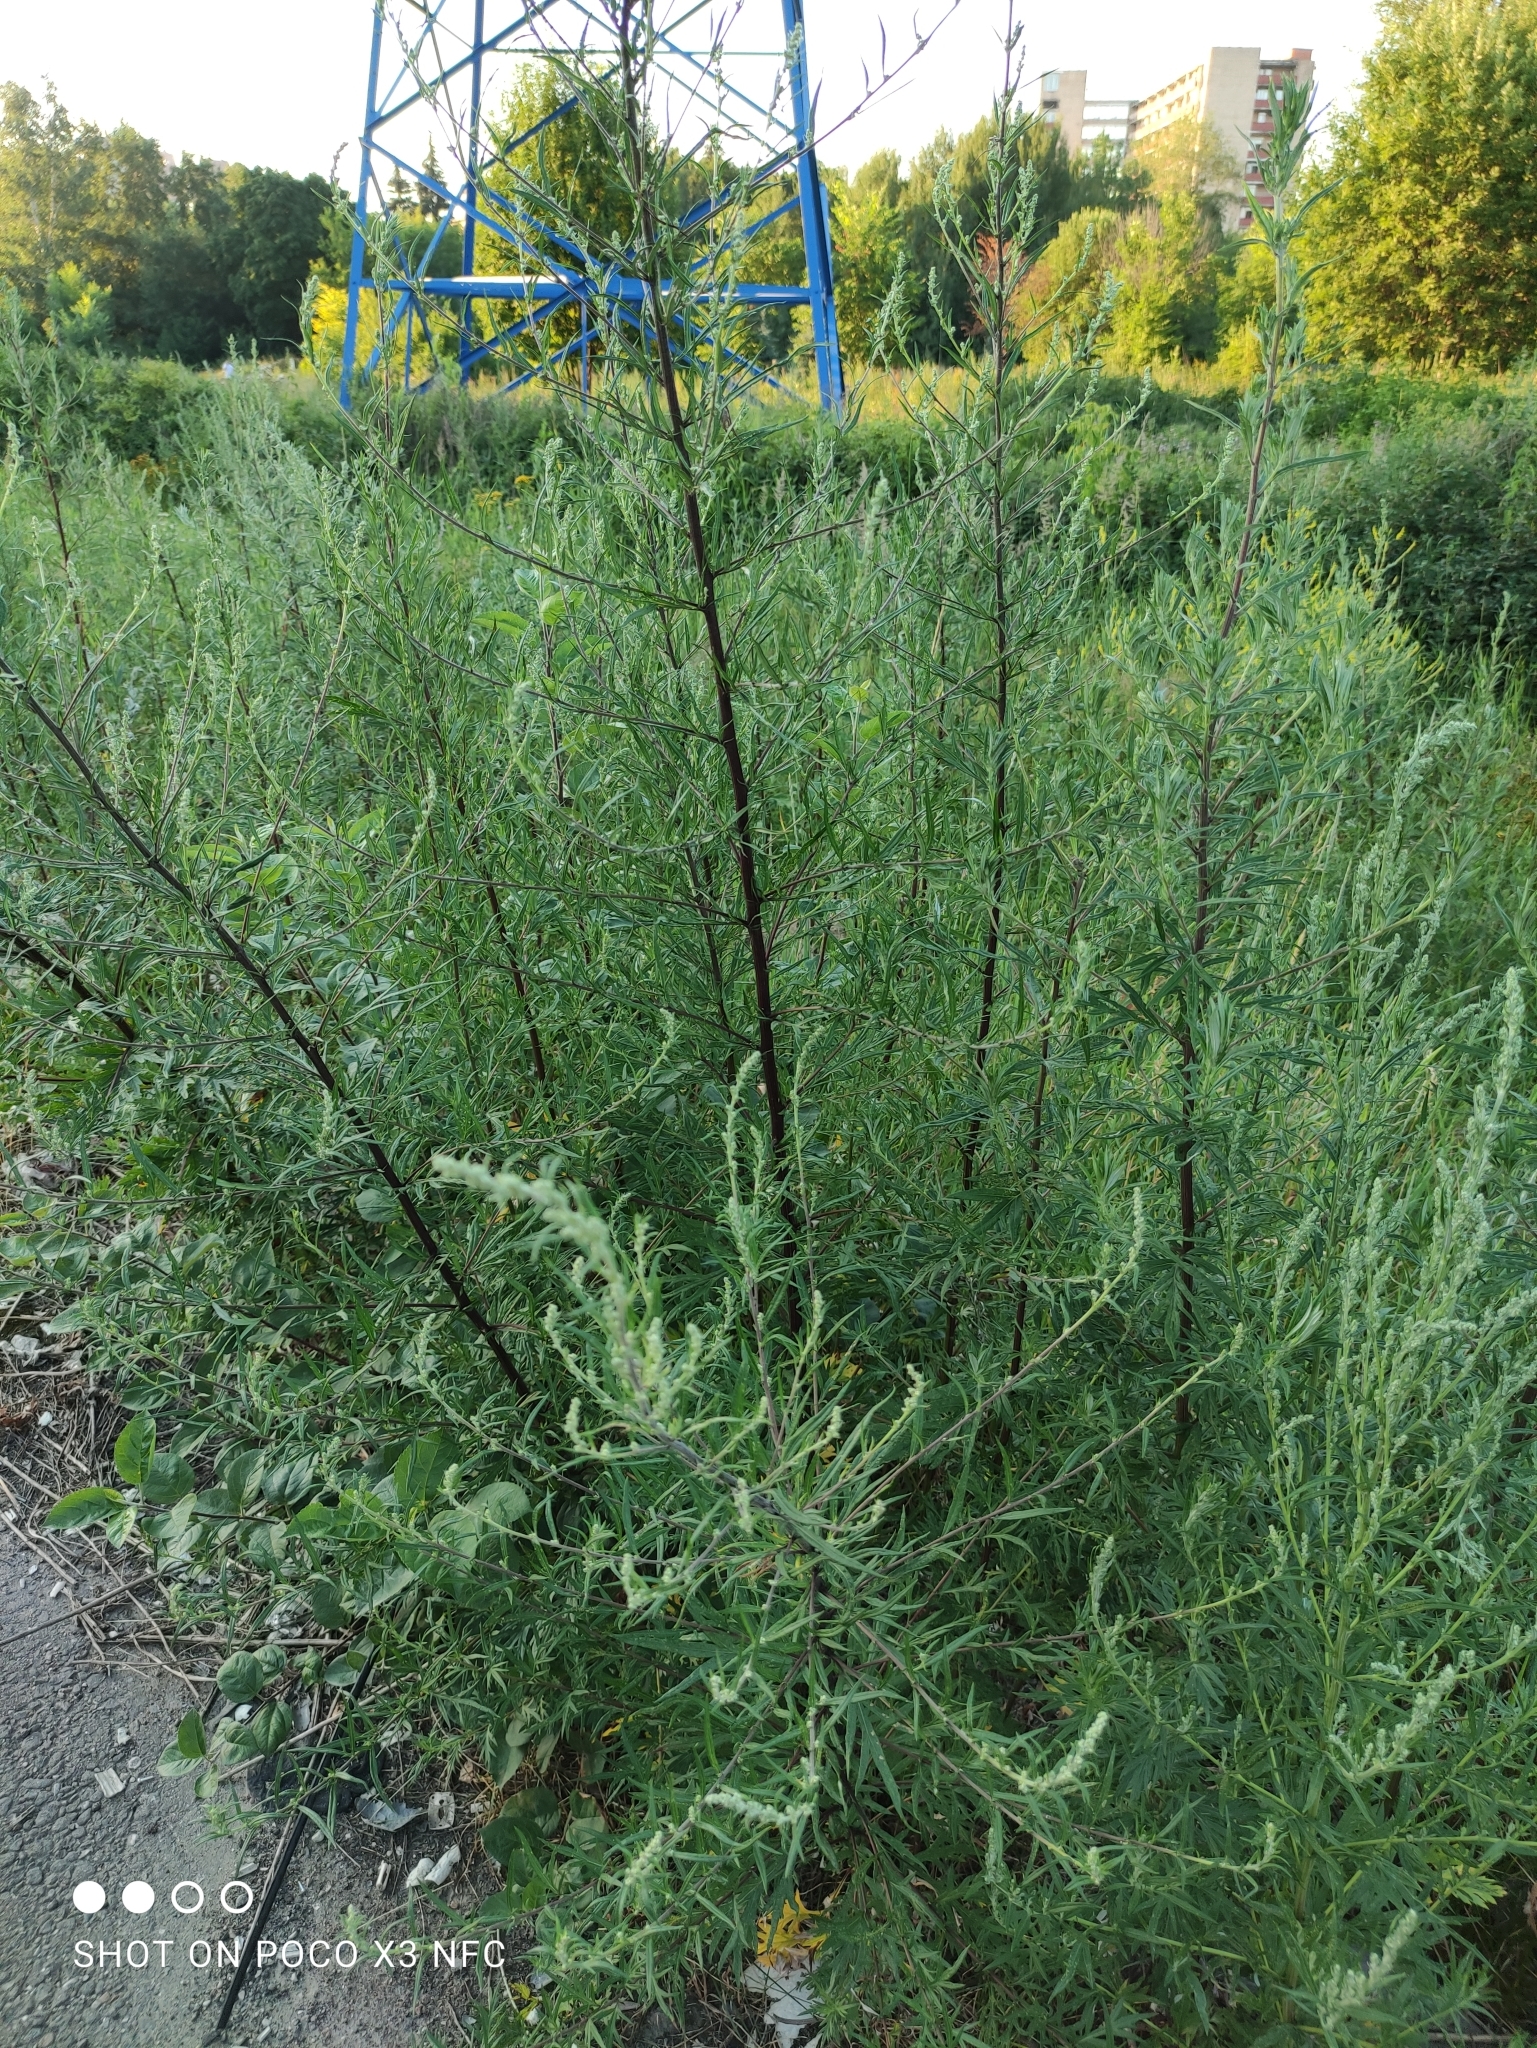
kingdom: Plantae
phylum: Tracheophyta
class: Magnoliopsida
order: Asterales
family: Asteraceae
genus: Artemisia
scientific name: Artemisia vulgaris
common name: Mugwort
